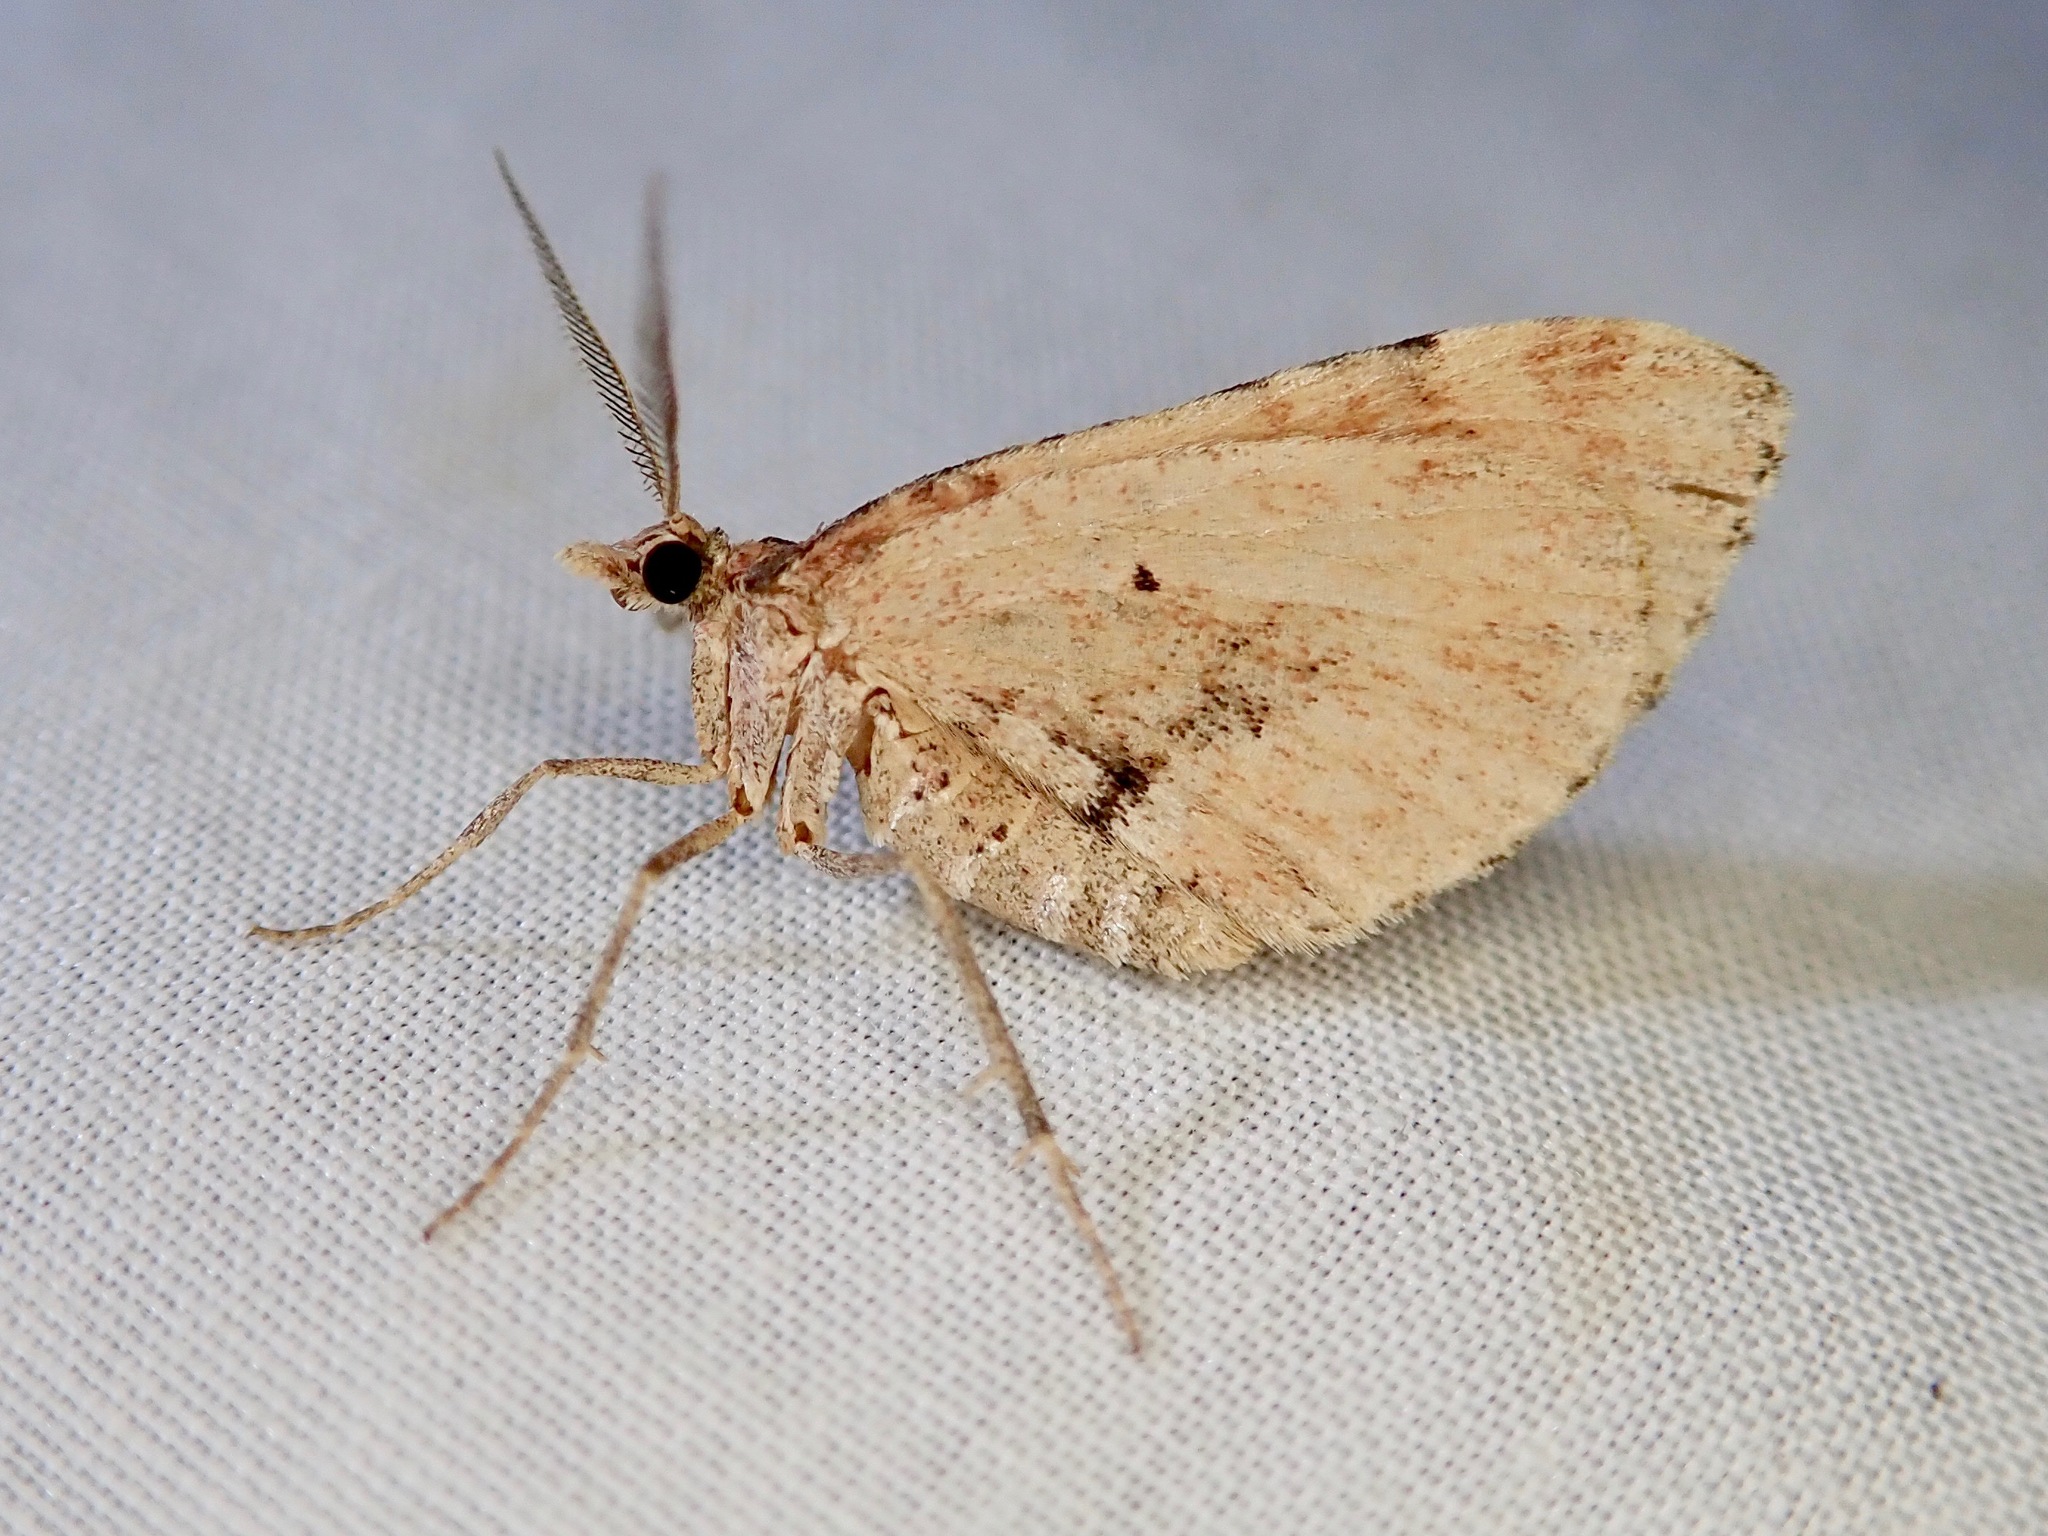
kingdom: Animalia
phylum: Arthropoda
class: Insecta
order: Lepidoptera
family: Geometridae
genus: Asaphodes
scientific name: Asaphodes aegrota
